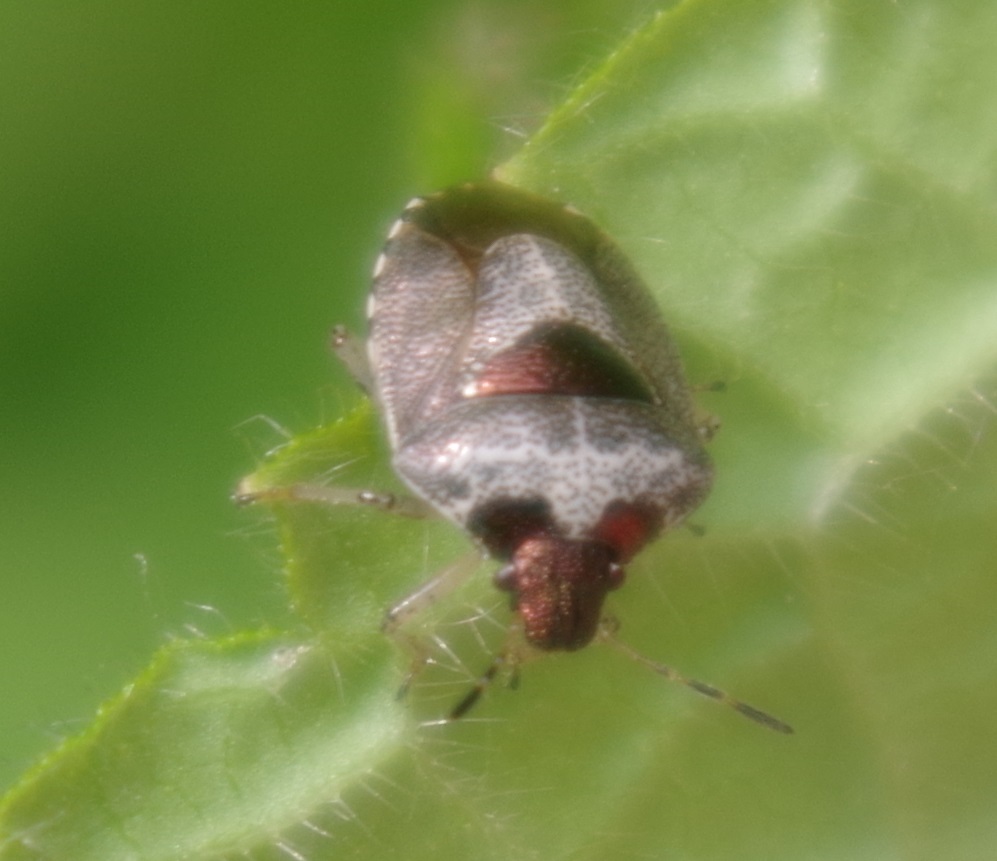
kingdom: Animalia
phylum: Arthropoda
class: Insecta
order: Hemiptera
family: Pentatomidae
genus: Eysarcoris
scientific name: Eysarcoris venustissimus
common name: Woundwort shieldbug
